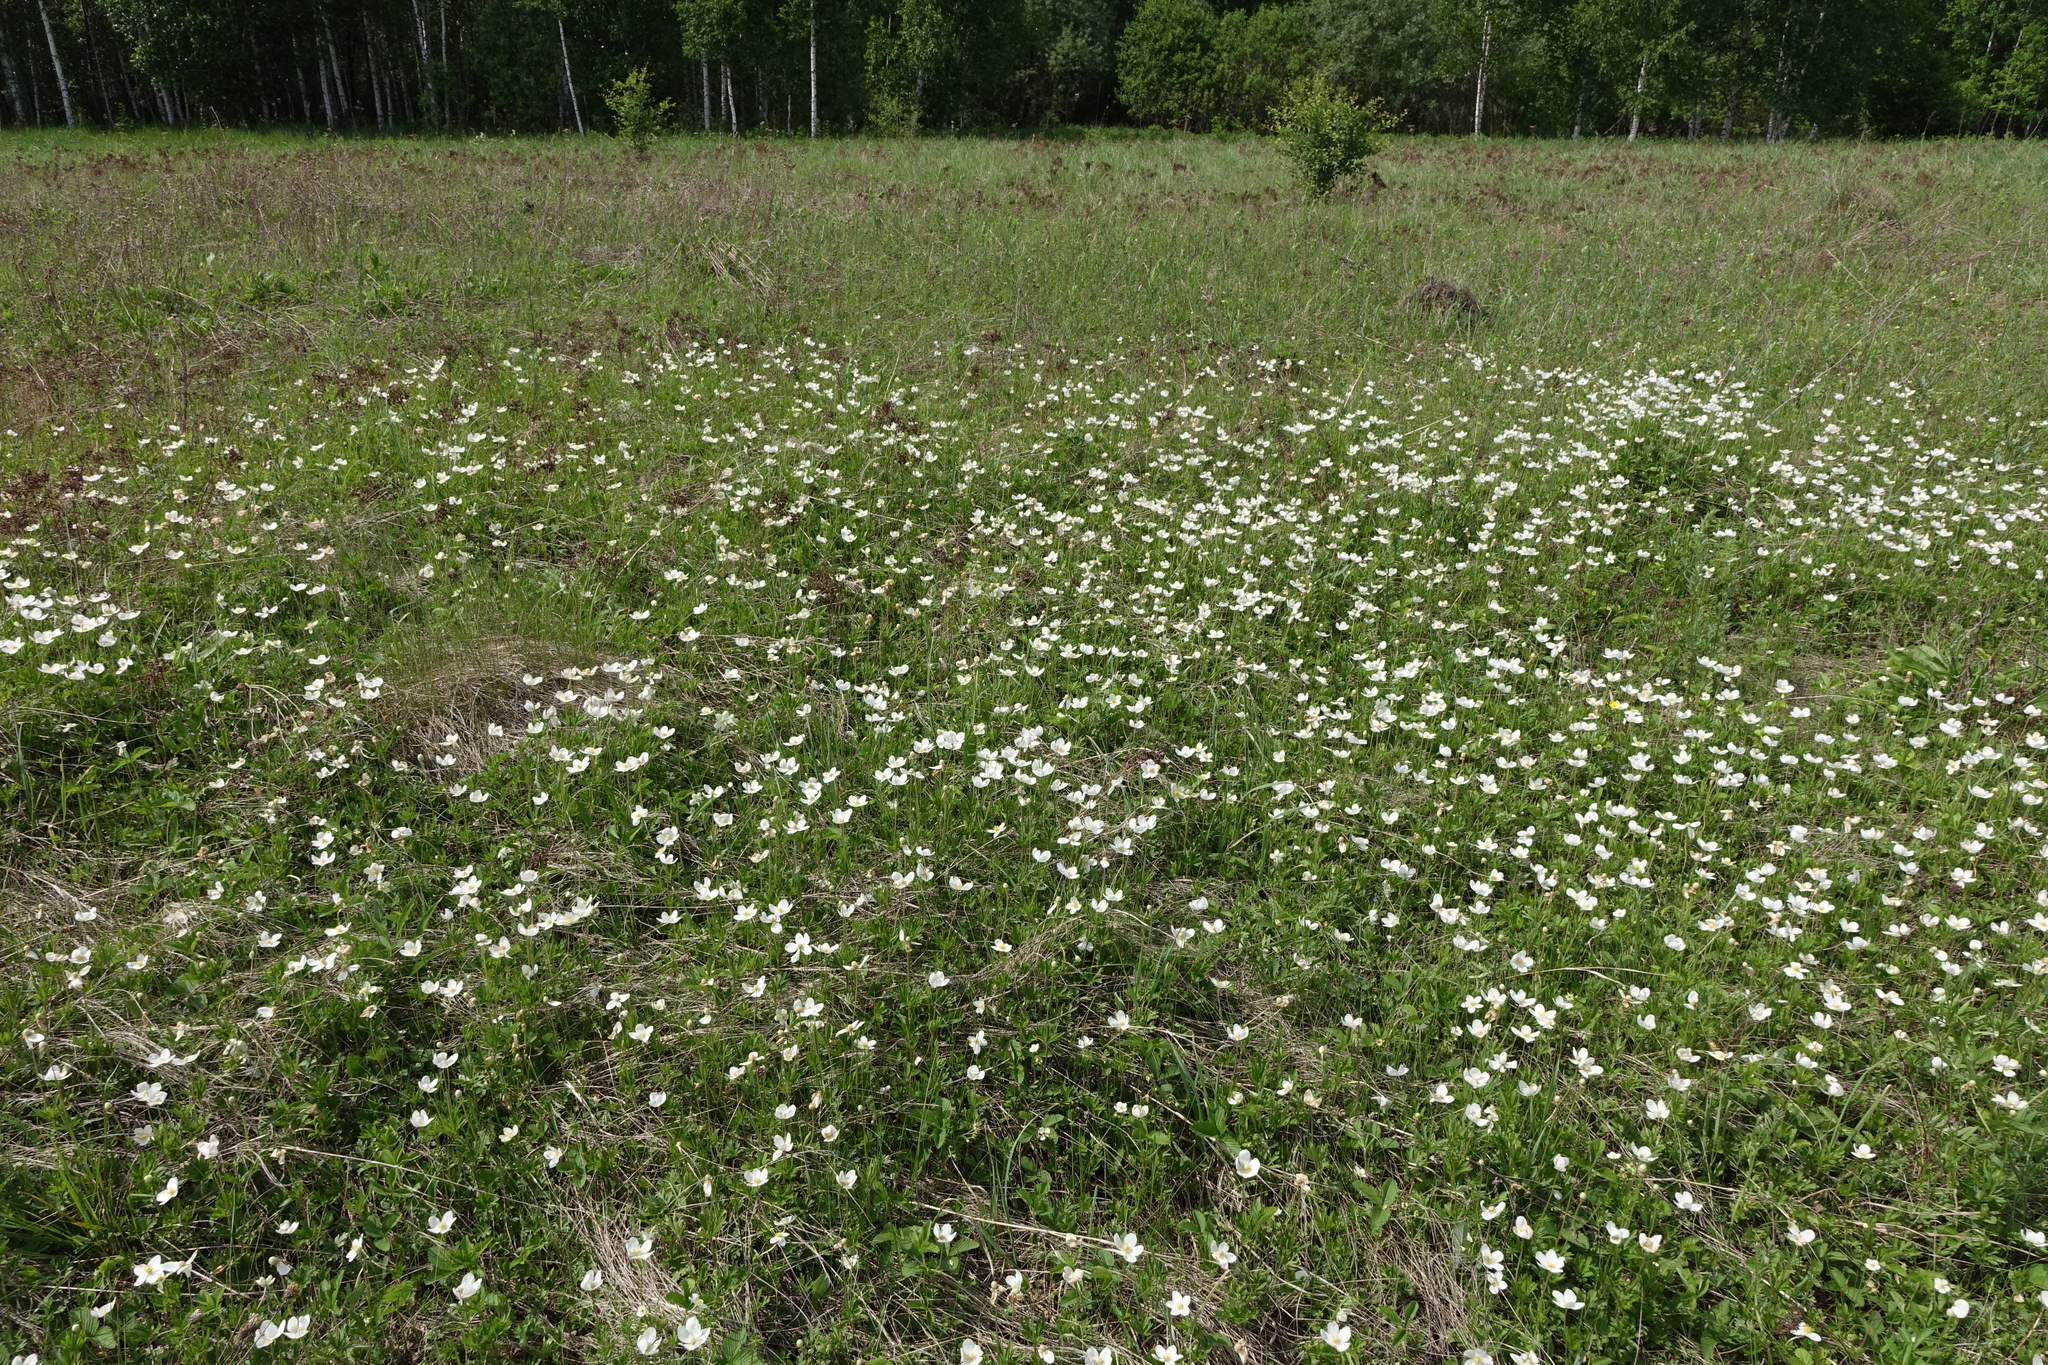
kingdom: Plantae
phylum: Tracheophyta
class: Magnoliopsida
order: Ranunculales
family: Ranunculaceae
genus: Anemone
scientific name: Anemone sylvestris
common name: Snowdrop anemone
